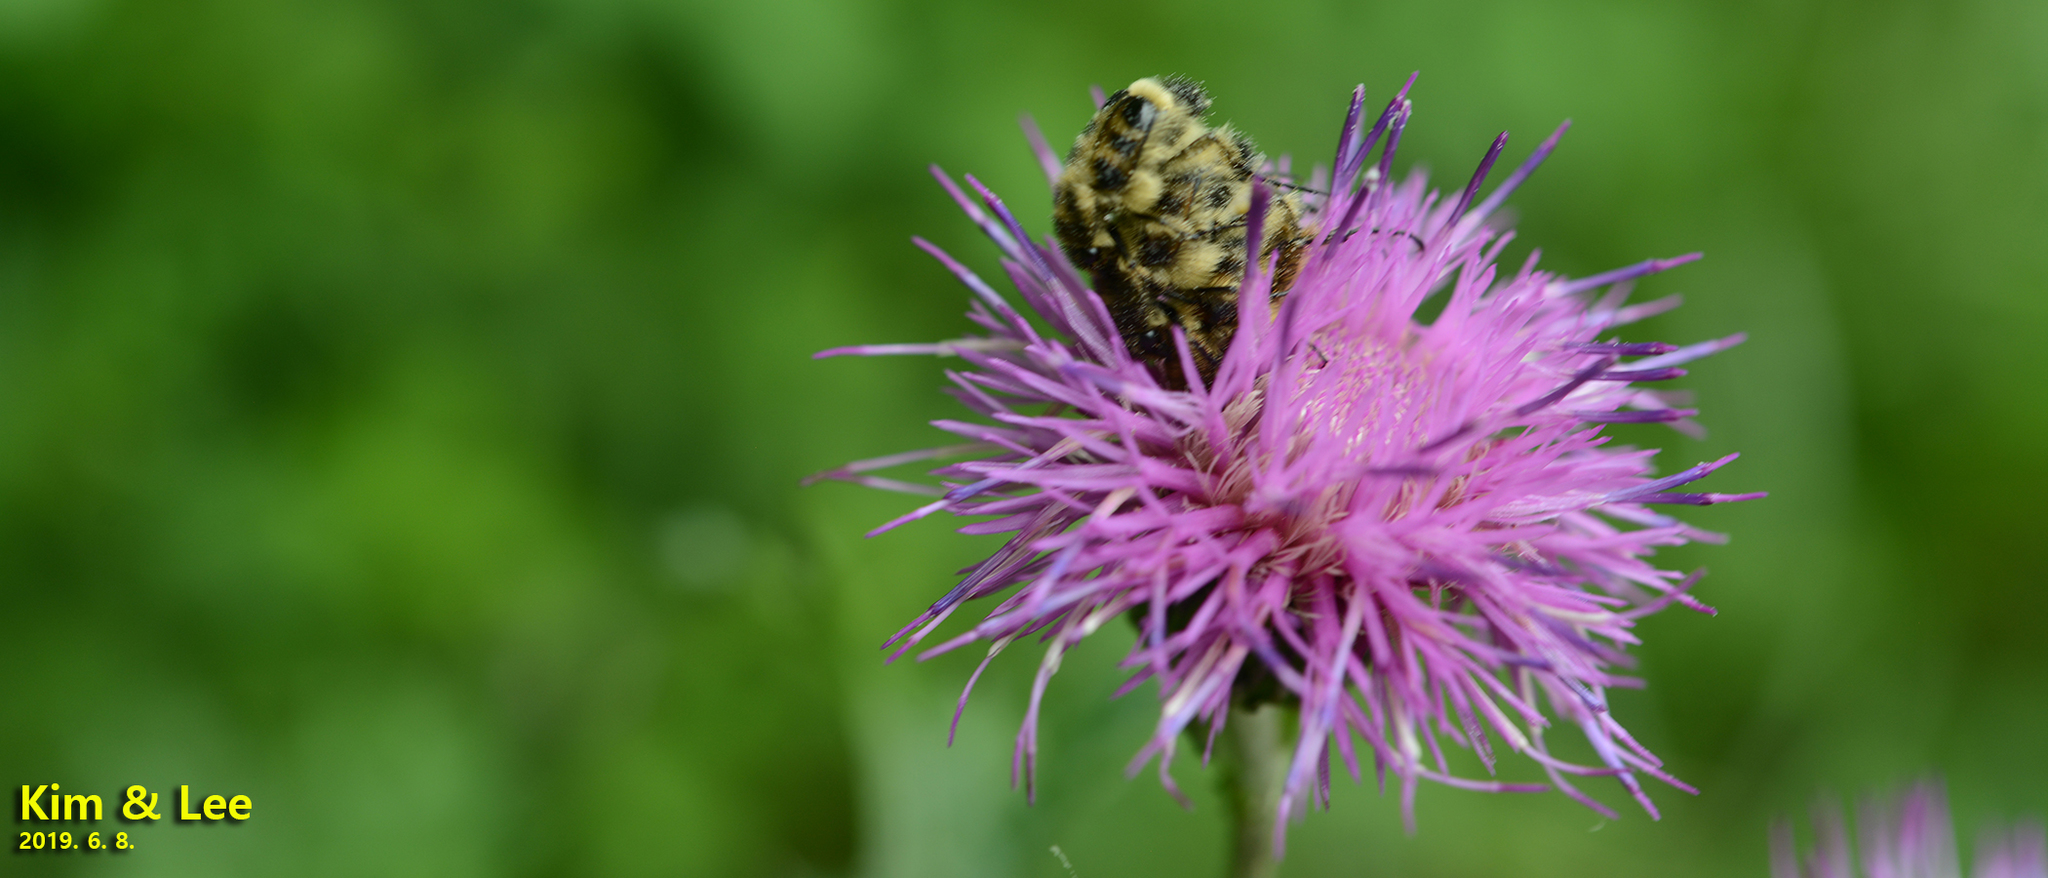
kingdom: Animalia
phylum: Arthropoda
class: Insecta
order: Coleoptera
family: Scarabaeidae
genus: Lasiotrichius
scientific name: Lasiotrichius succinctus
